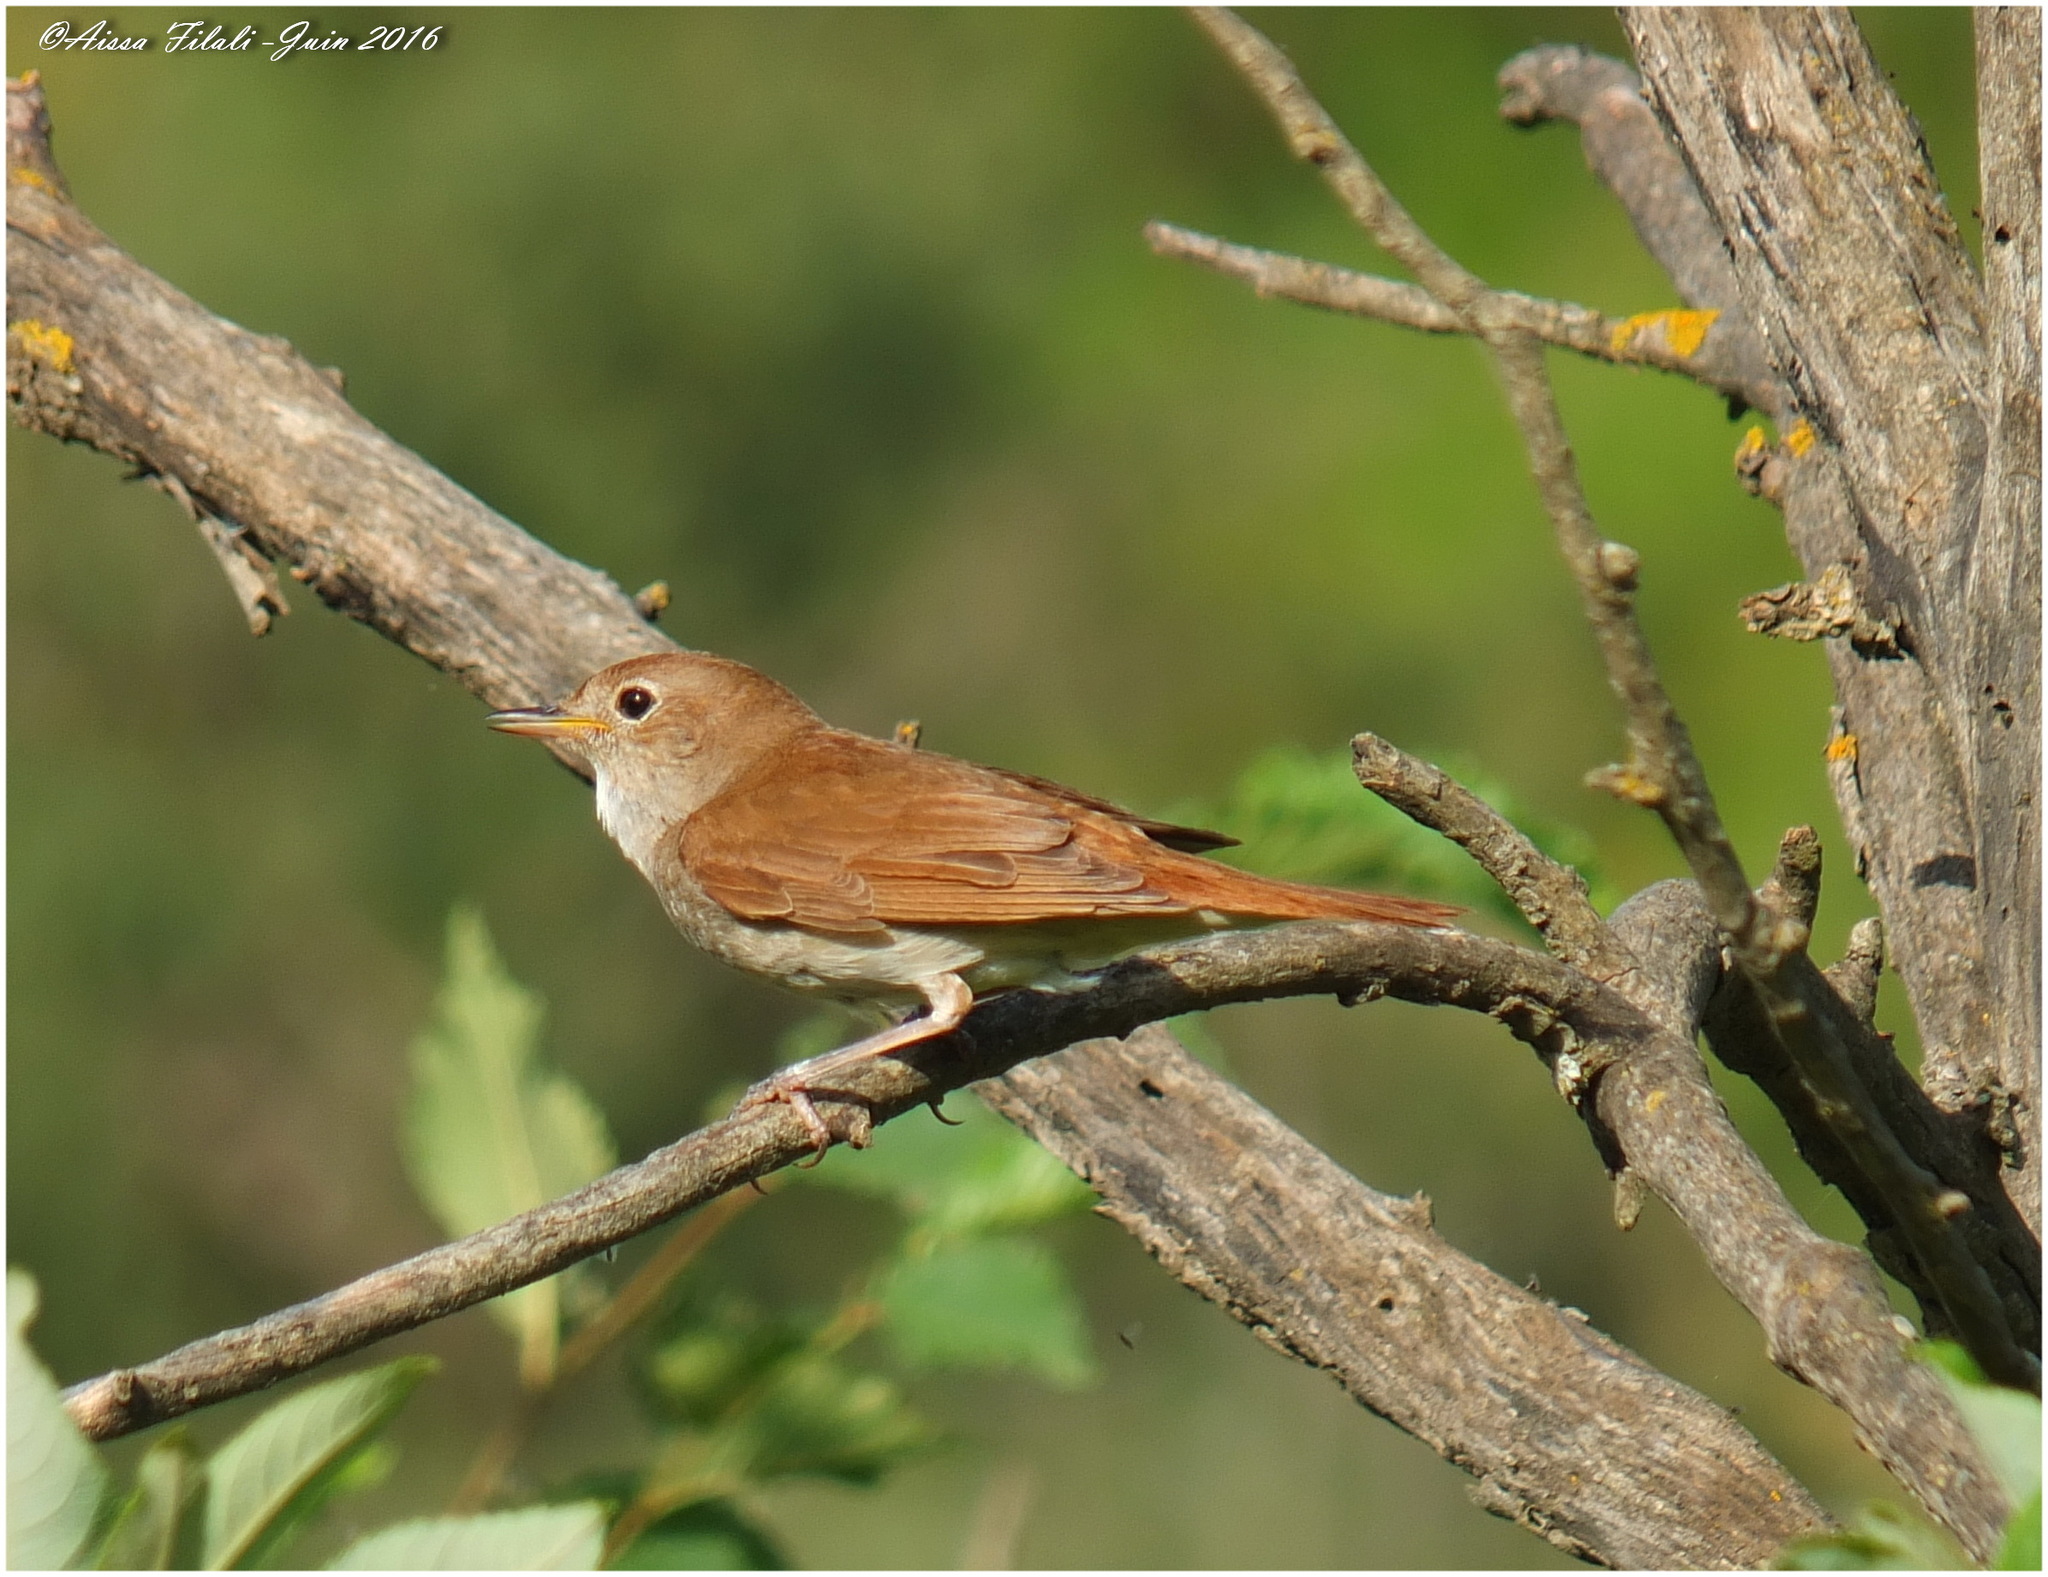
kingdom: Animalia
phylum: Chordata
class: Aves
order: Passeriformes
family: Muscicapidae
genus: Luscinia
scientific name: Luscinia megarhynchos
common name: Common nightingale
